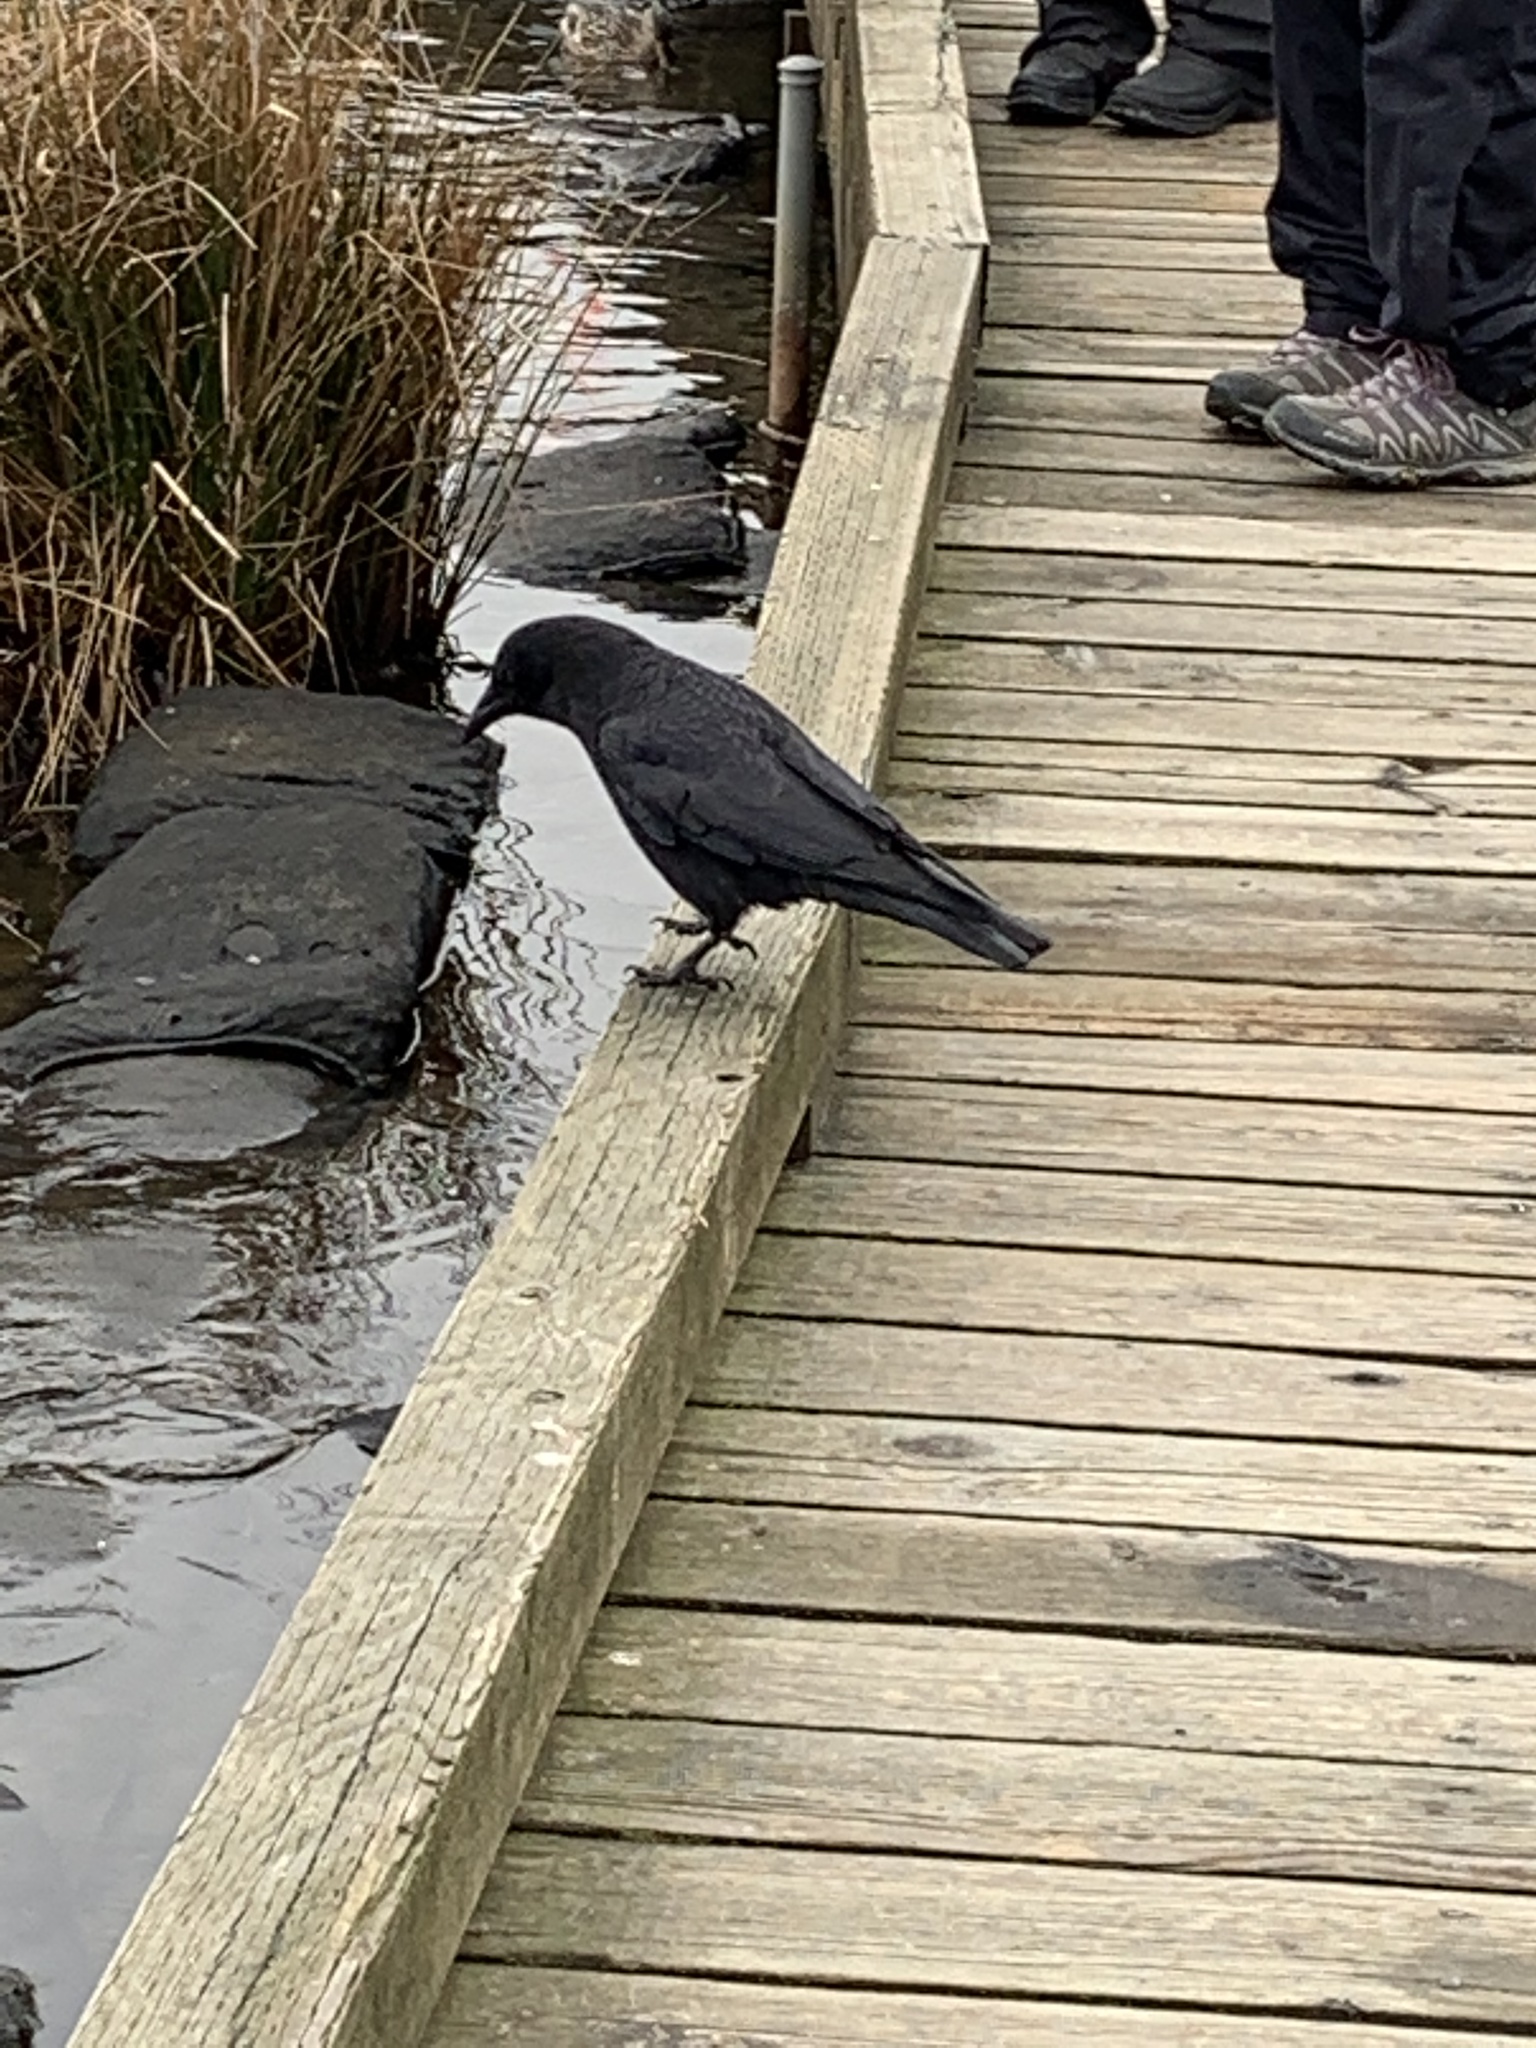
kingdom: Animalia
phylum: Chordata
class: Aves
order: Passeriformes
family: Corvidae
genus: Corvus
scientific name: Corvus brachyrhynchos
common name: American crow
